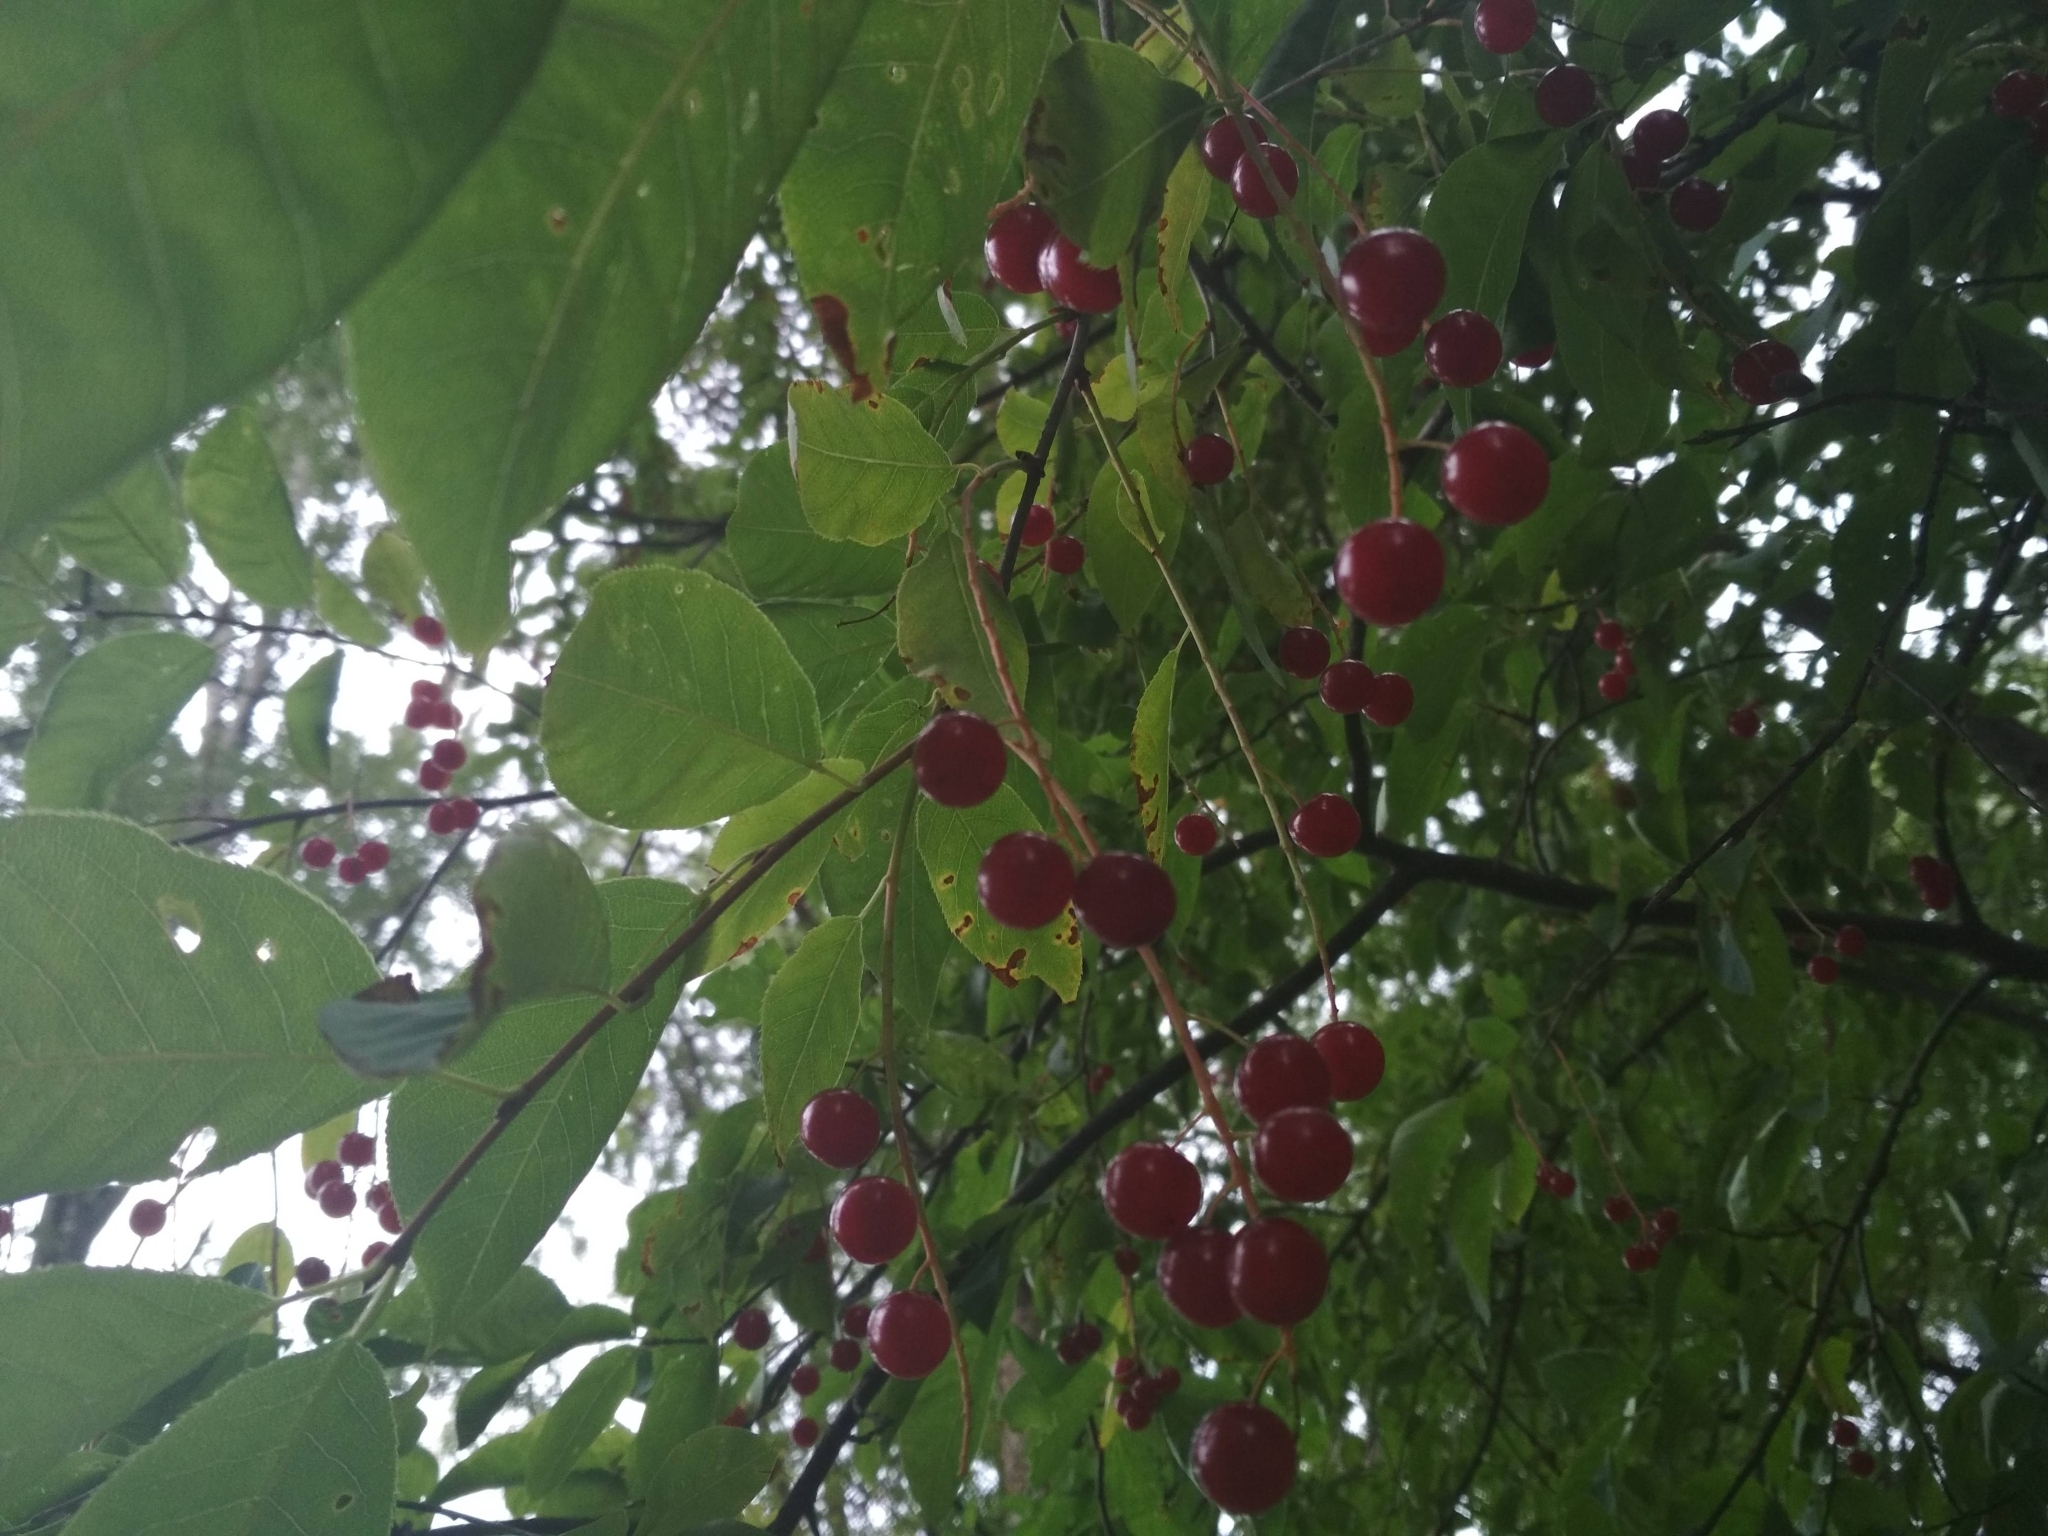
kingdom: Plantae
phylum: Tracheophyta
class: Magnoliopsida
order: Rosales
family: Rosaceae
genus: Prunus
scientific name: Prunus virginiana
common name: Chokecherry
